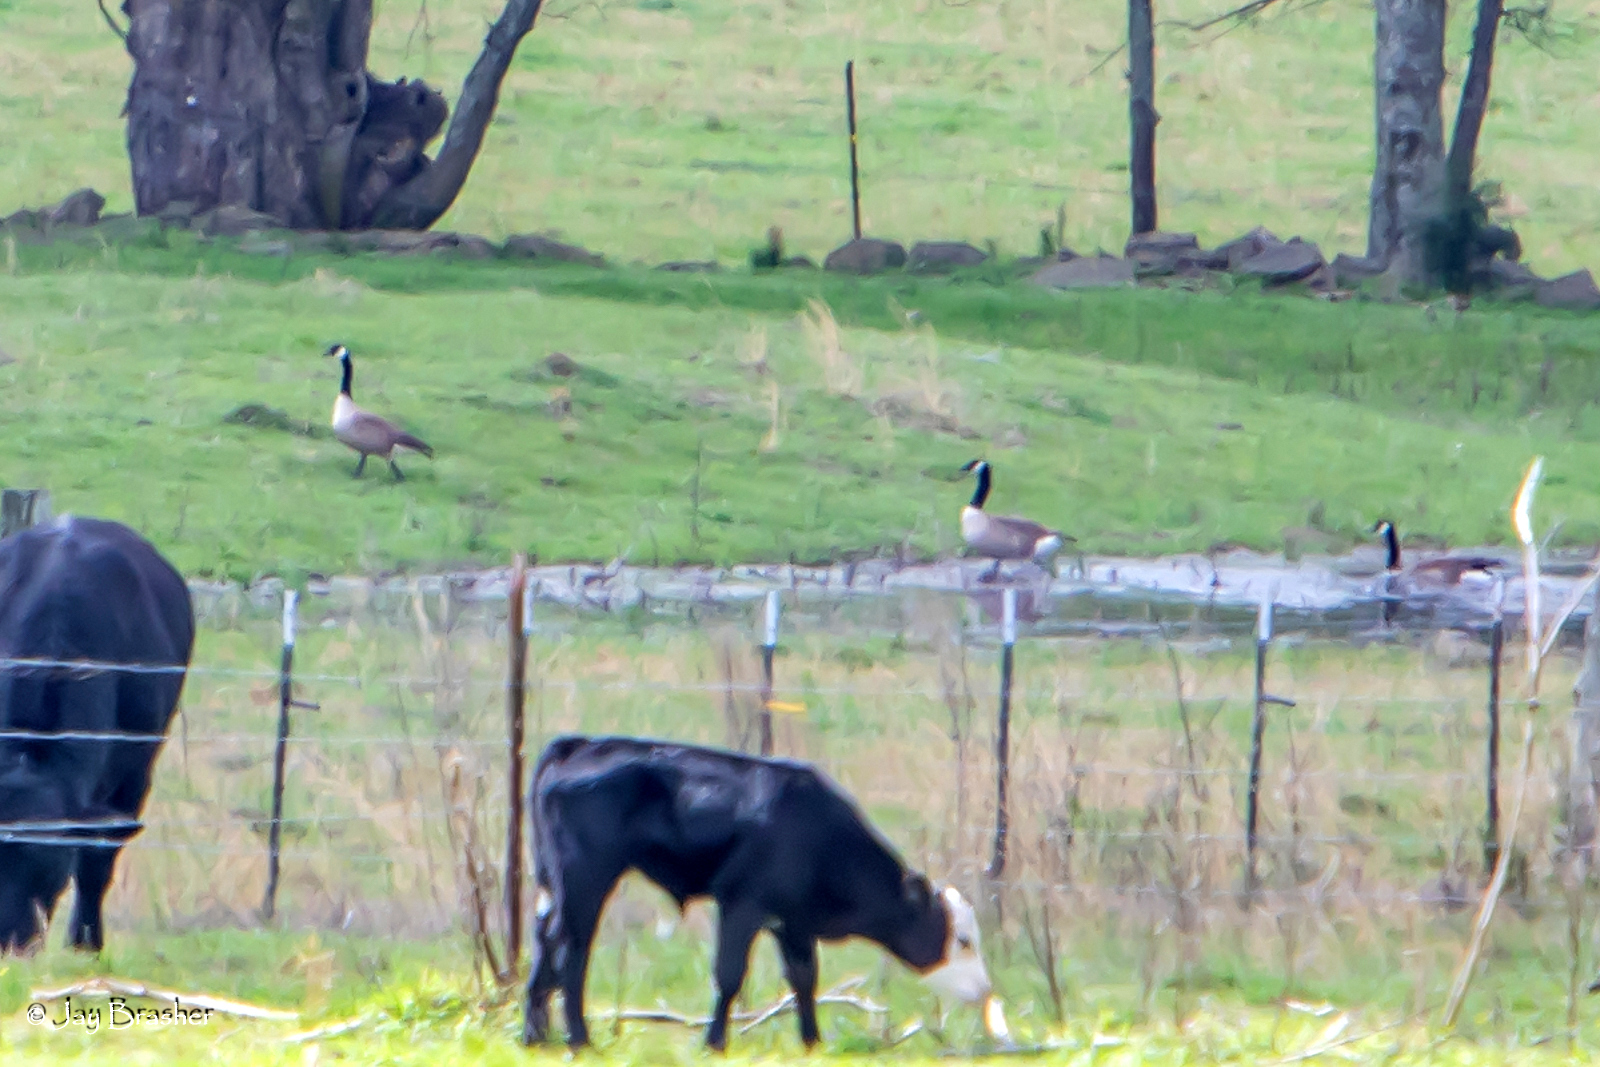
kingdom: Animalia
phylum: Chordata
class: Aves
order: Anseriformes
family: Anatidae
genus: Branta
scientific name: Branta canadensis
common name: Canada goose
